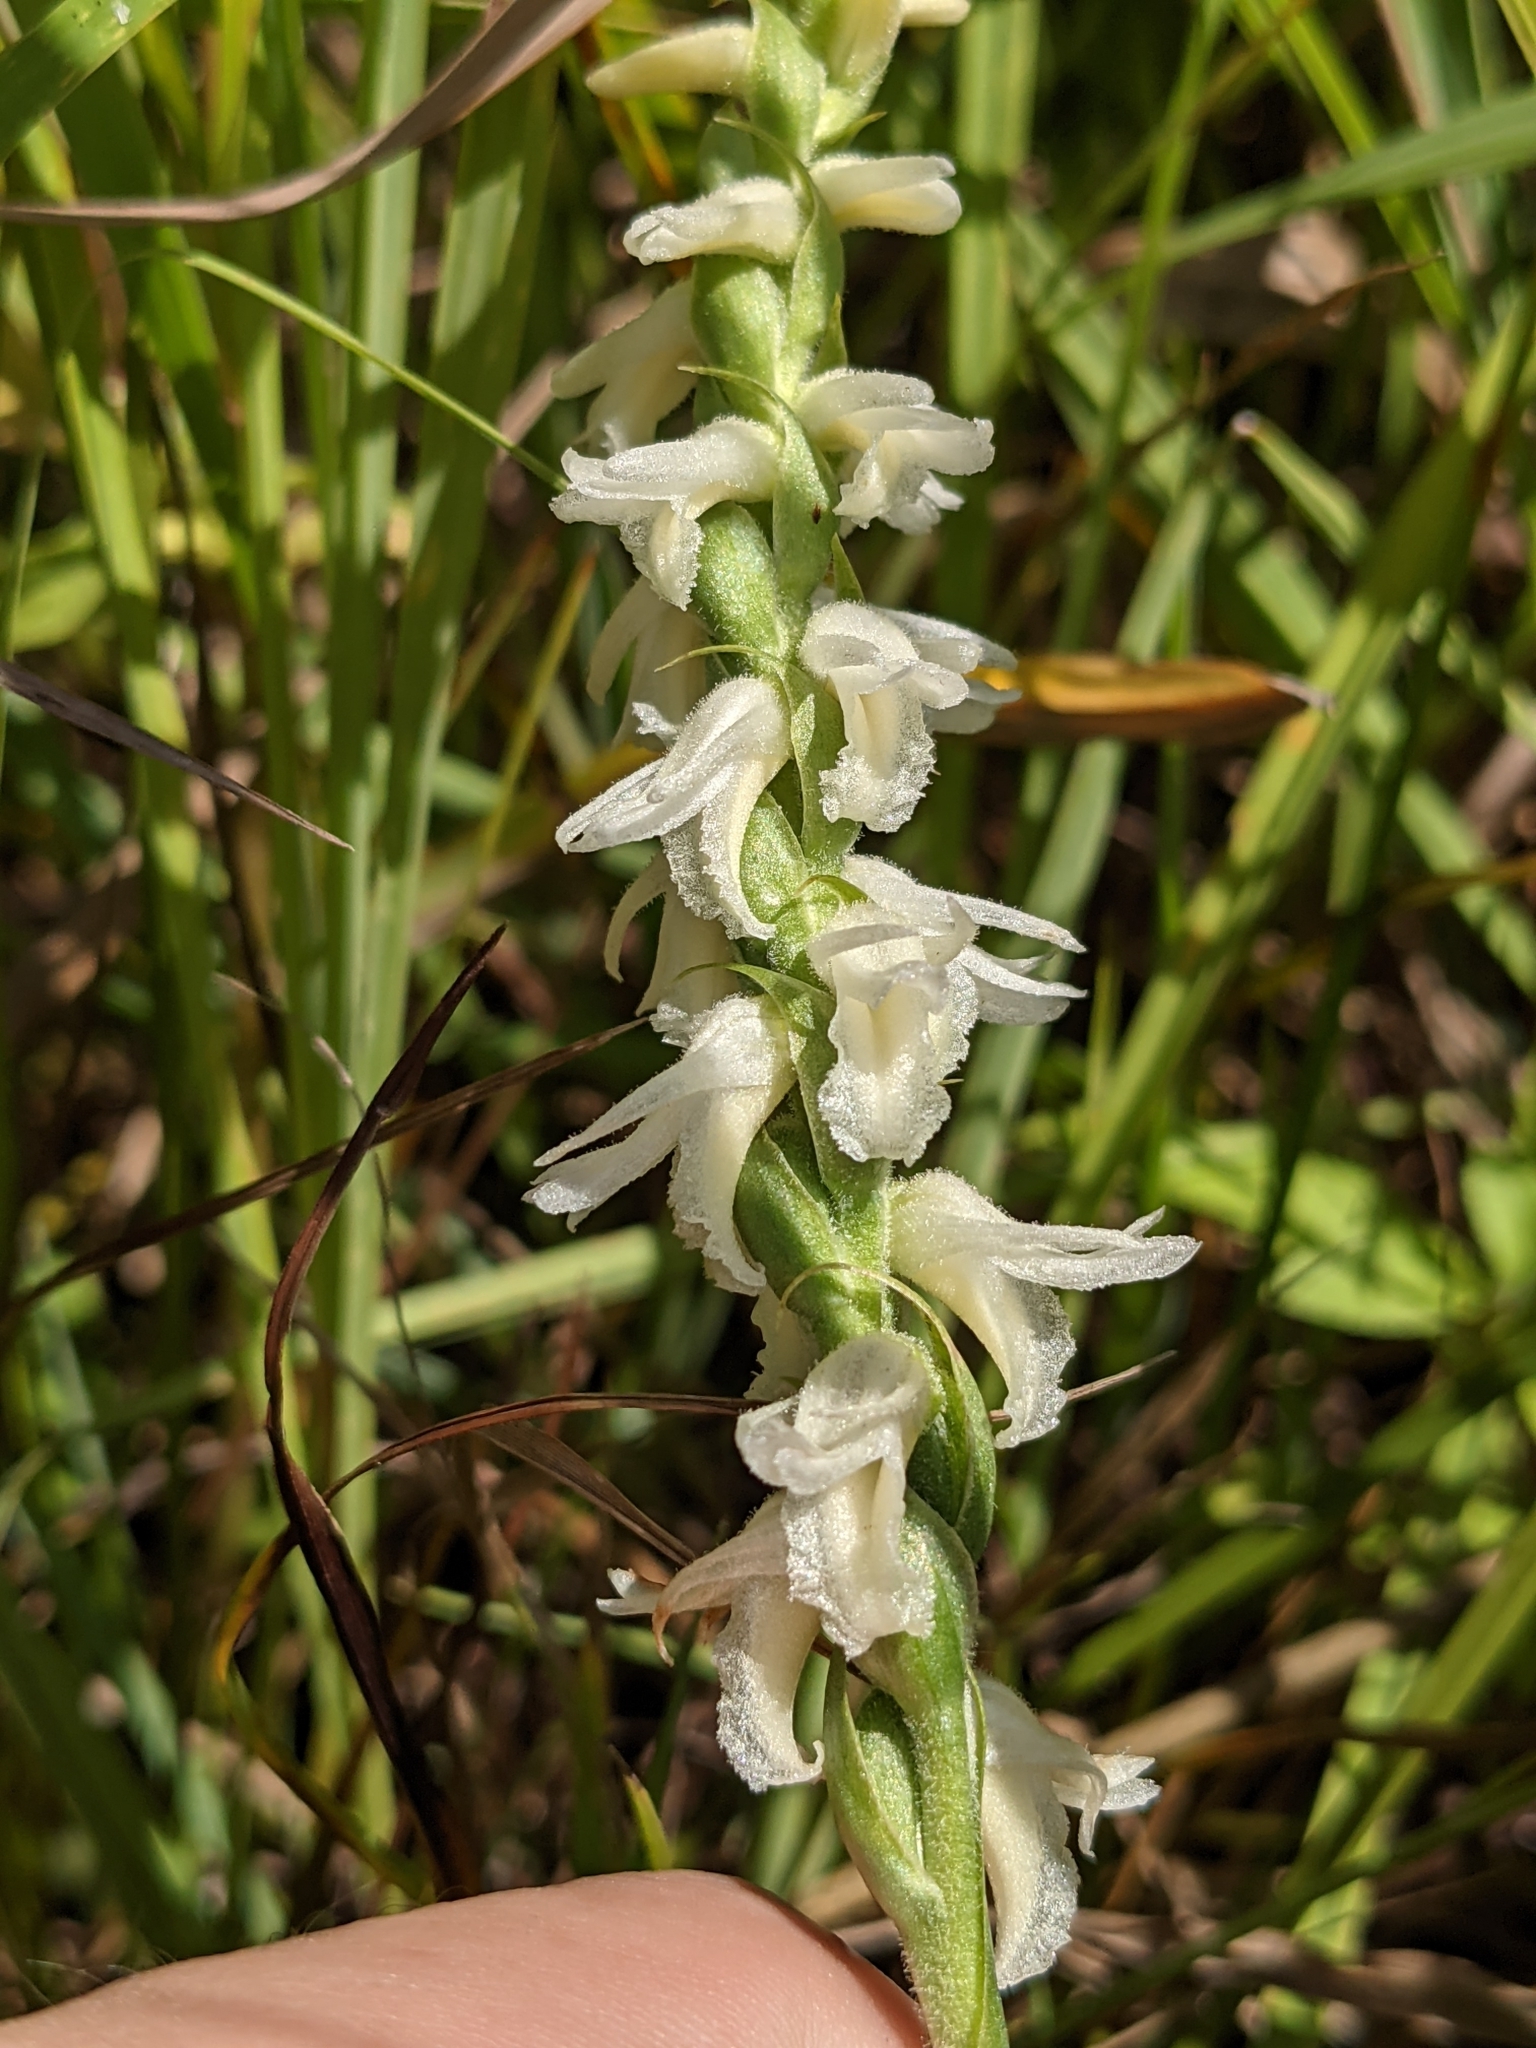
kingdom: Plantae
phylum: Tracheophyta
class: Liliopsida
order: Asparagales
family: Orchidaceae
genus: Spiranthes
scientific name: Spiranthes magnicamporum
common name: Great plains ladies'-tresses
